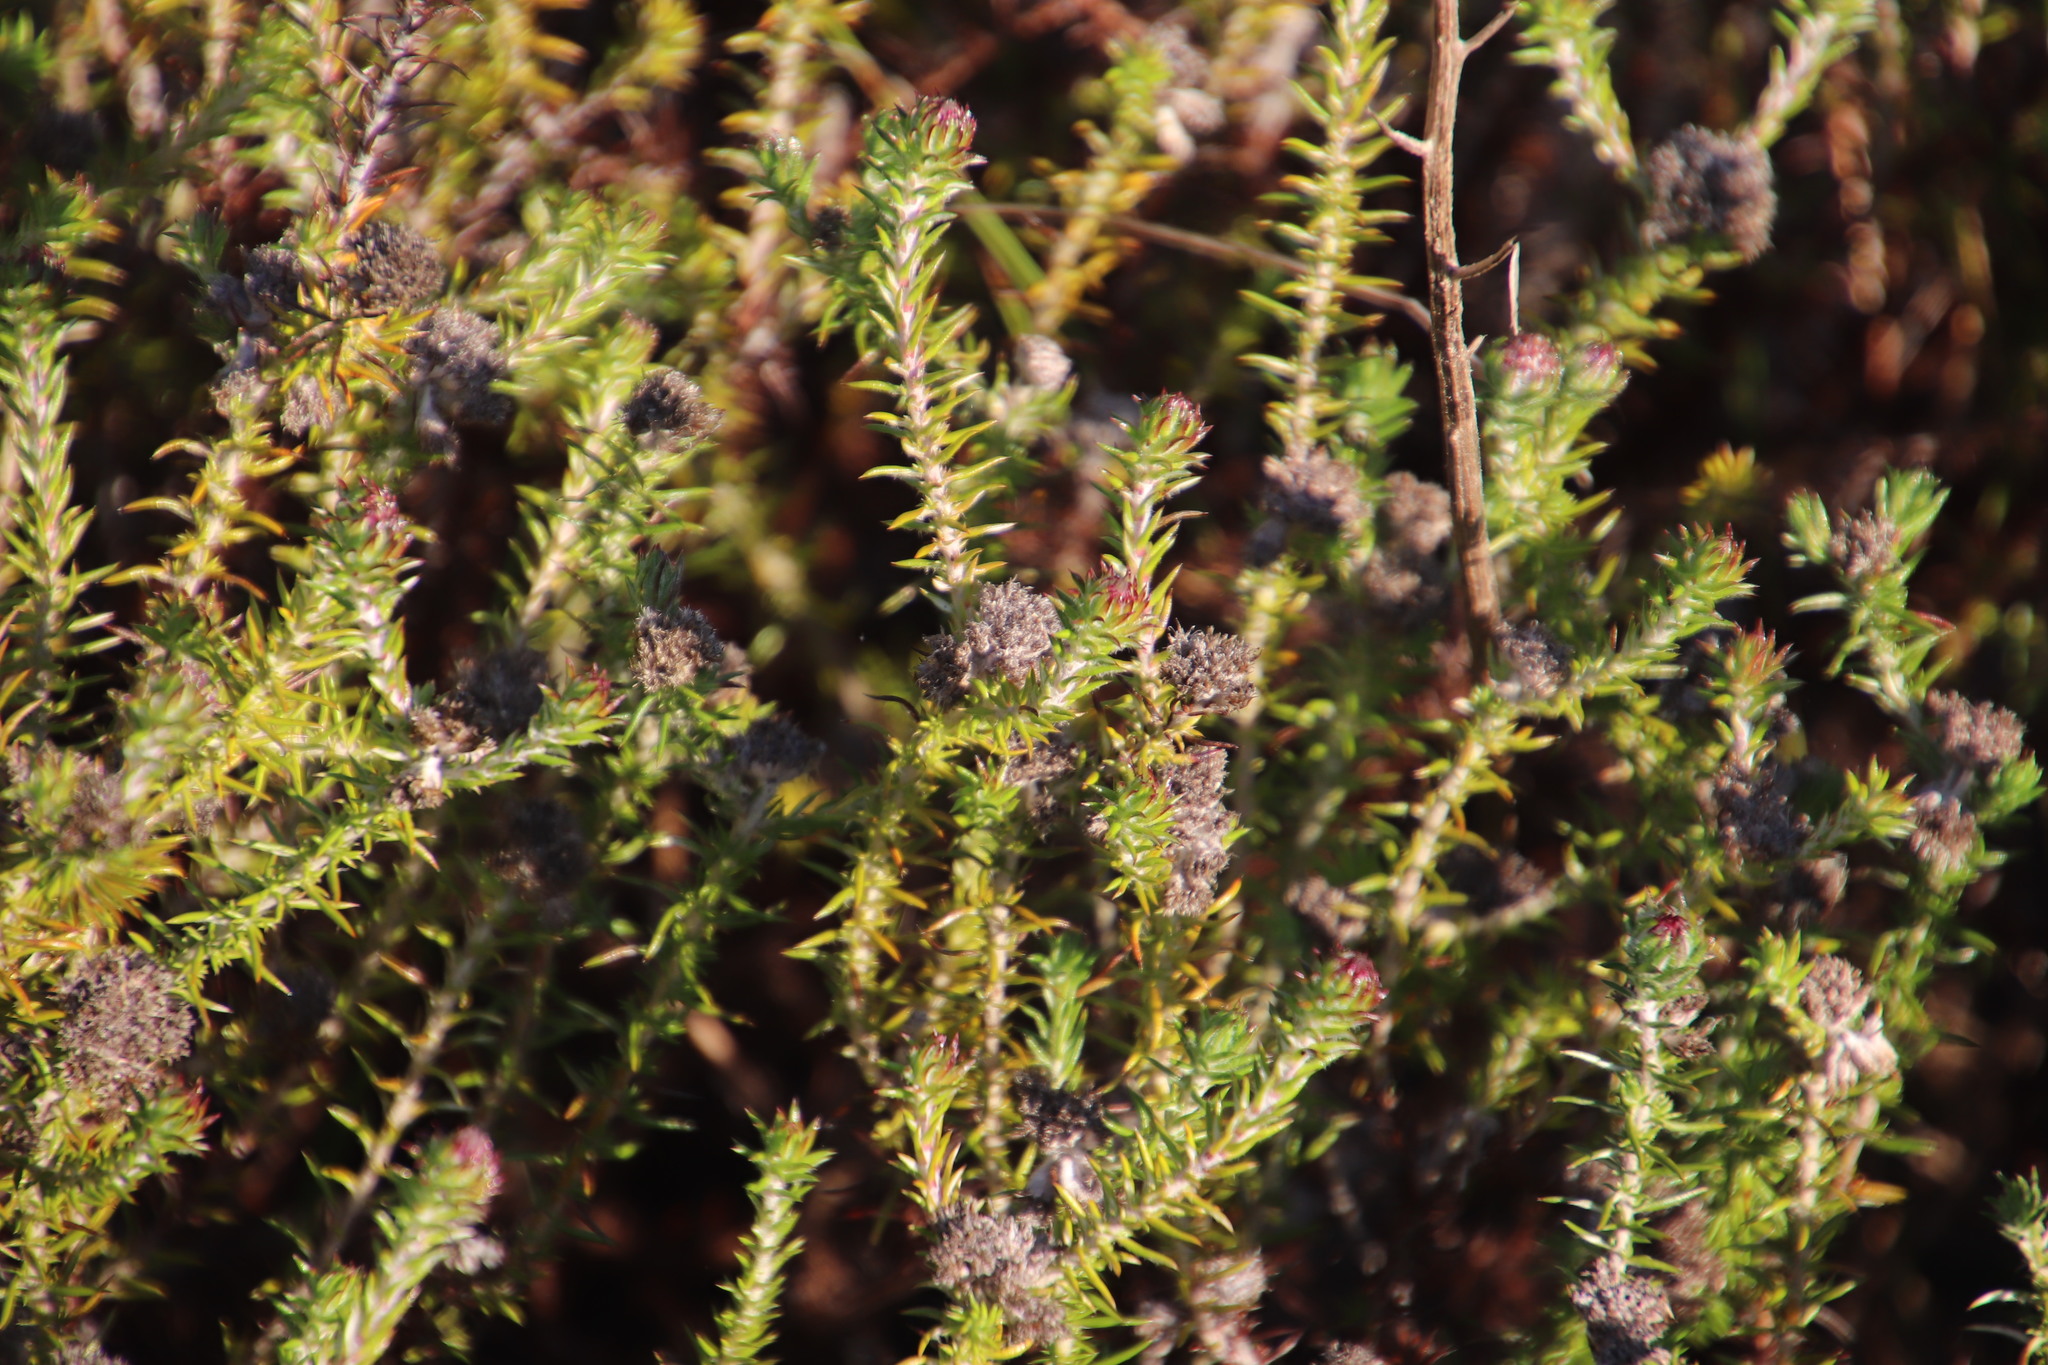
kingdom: Plantae
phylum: Tracheophyta
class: Magnoliopsida
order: Asterales
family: Asteraceae
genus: Metalasia
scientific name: Metalasia pulchella
